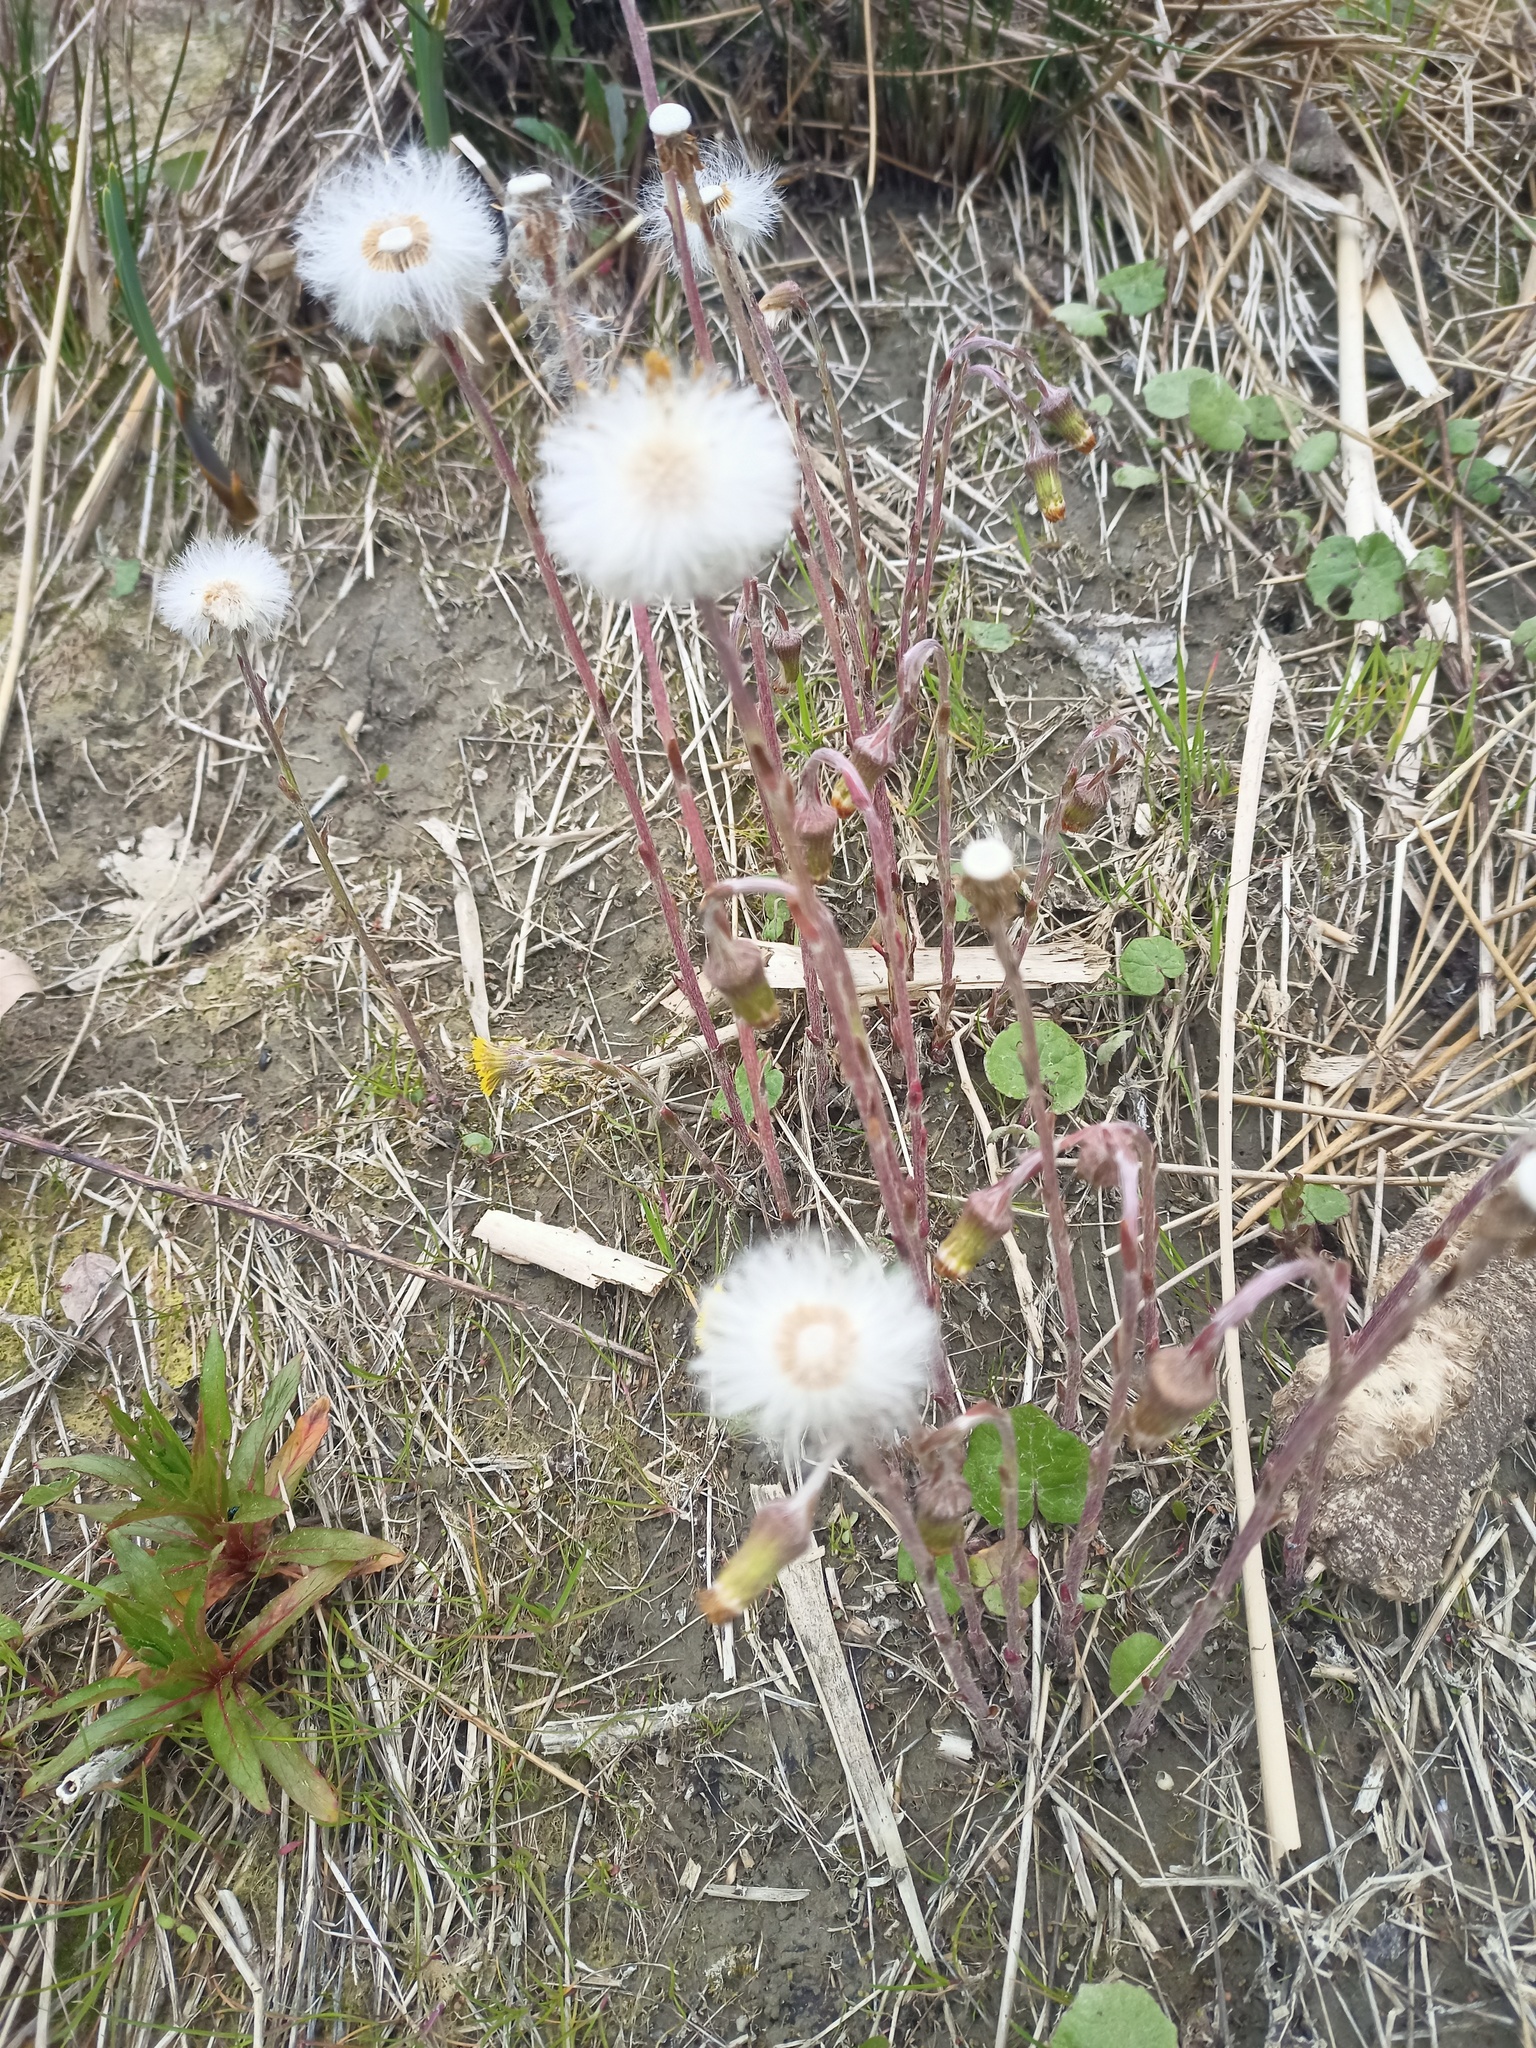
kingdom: Plantae
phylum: Tracheophyta
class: Magnoliopsida
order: Asterales
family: Asteraceae
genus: Tussilago
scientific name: Tussilago farfara
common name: Coltsfoot
